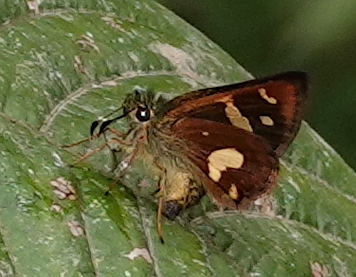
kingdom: Animalia
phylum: Arthropoda
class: Insecta
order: Lepidoptera
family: Hesperiidae
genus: Dalla
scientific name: Dalla mesoxantha
